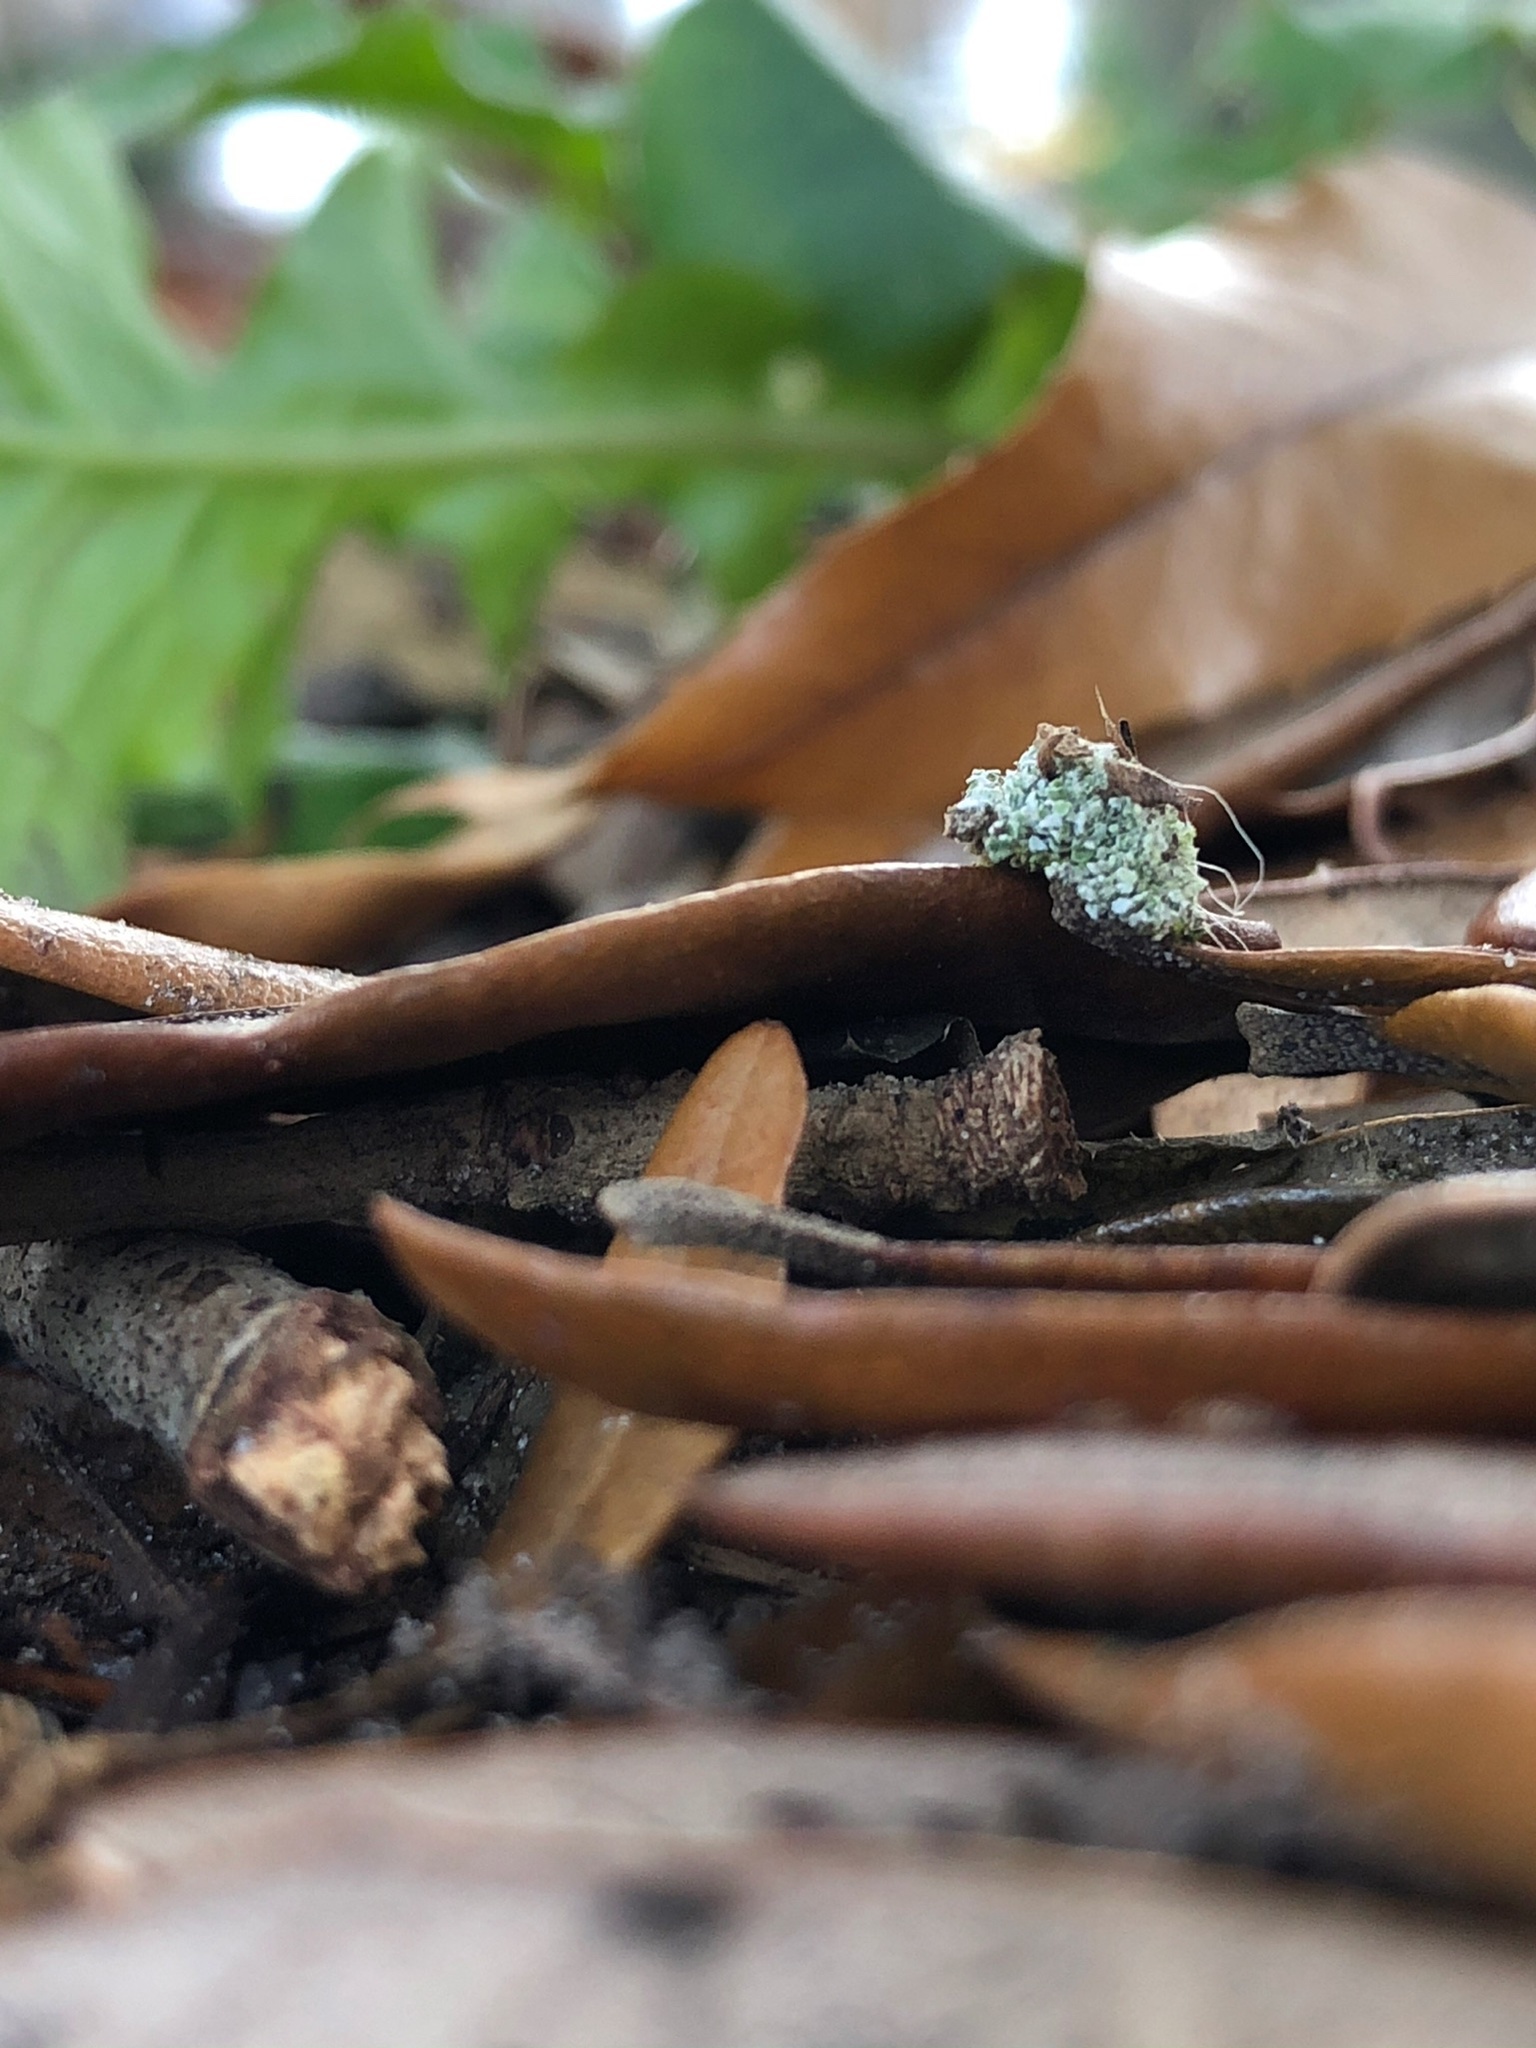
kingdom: Animalia
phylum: Arthropoda
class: Insecta
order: Neuroptera
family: Chrysopidae
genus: Leucochrysa
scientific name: Leucochrysa pavida
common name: Lichen-carrying green lacewing
